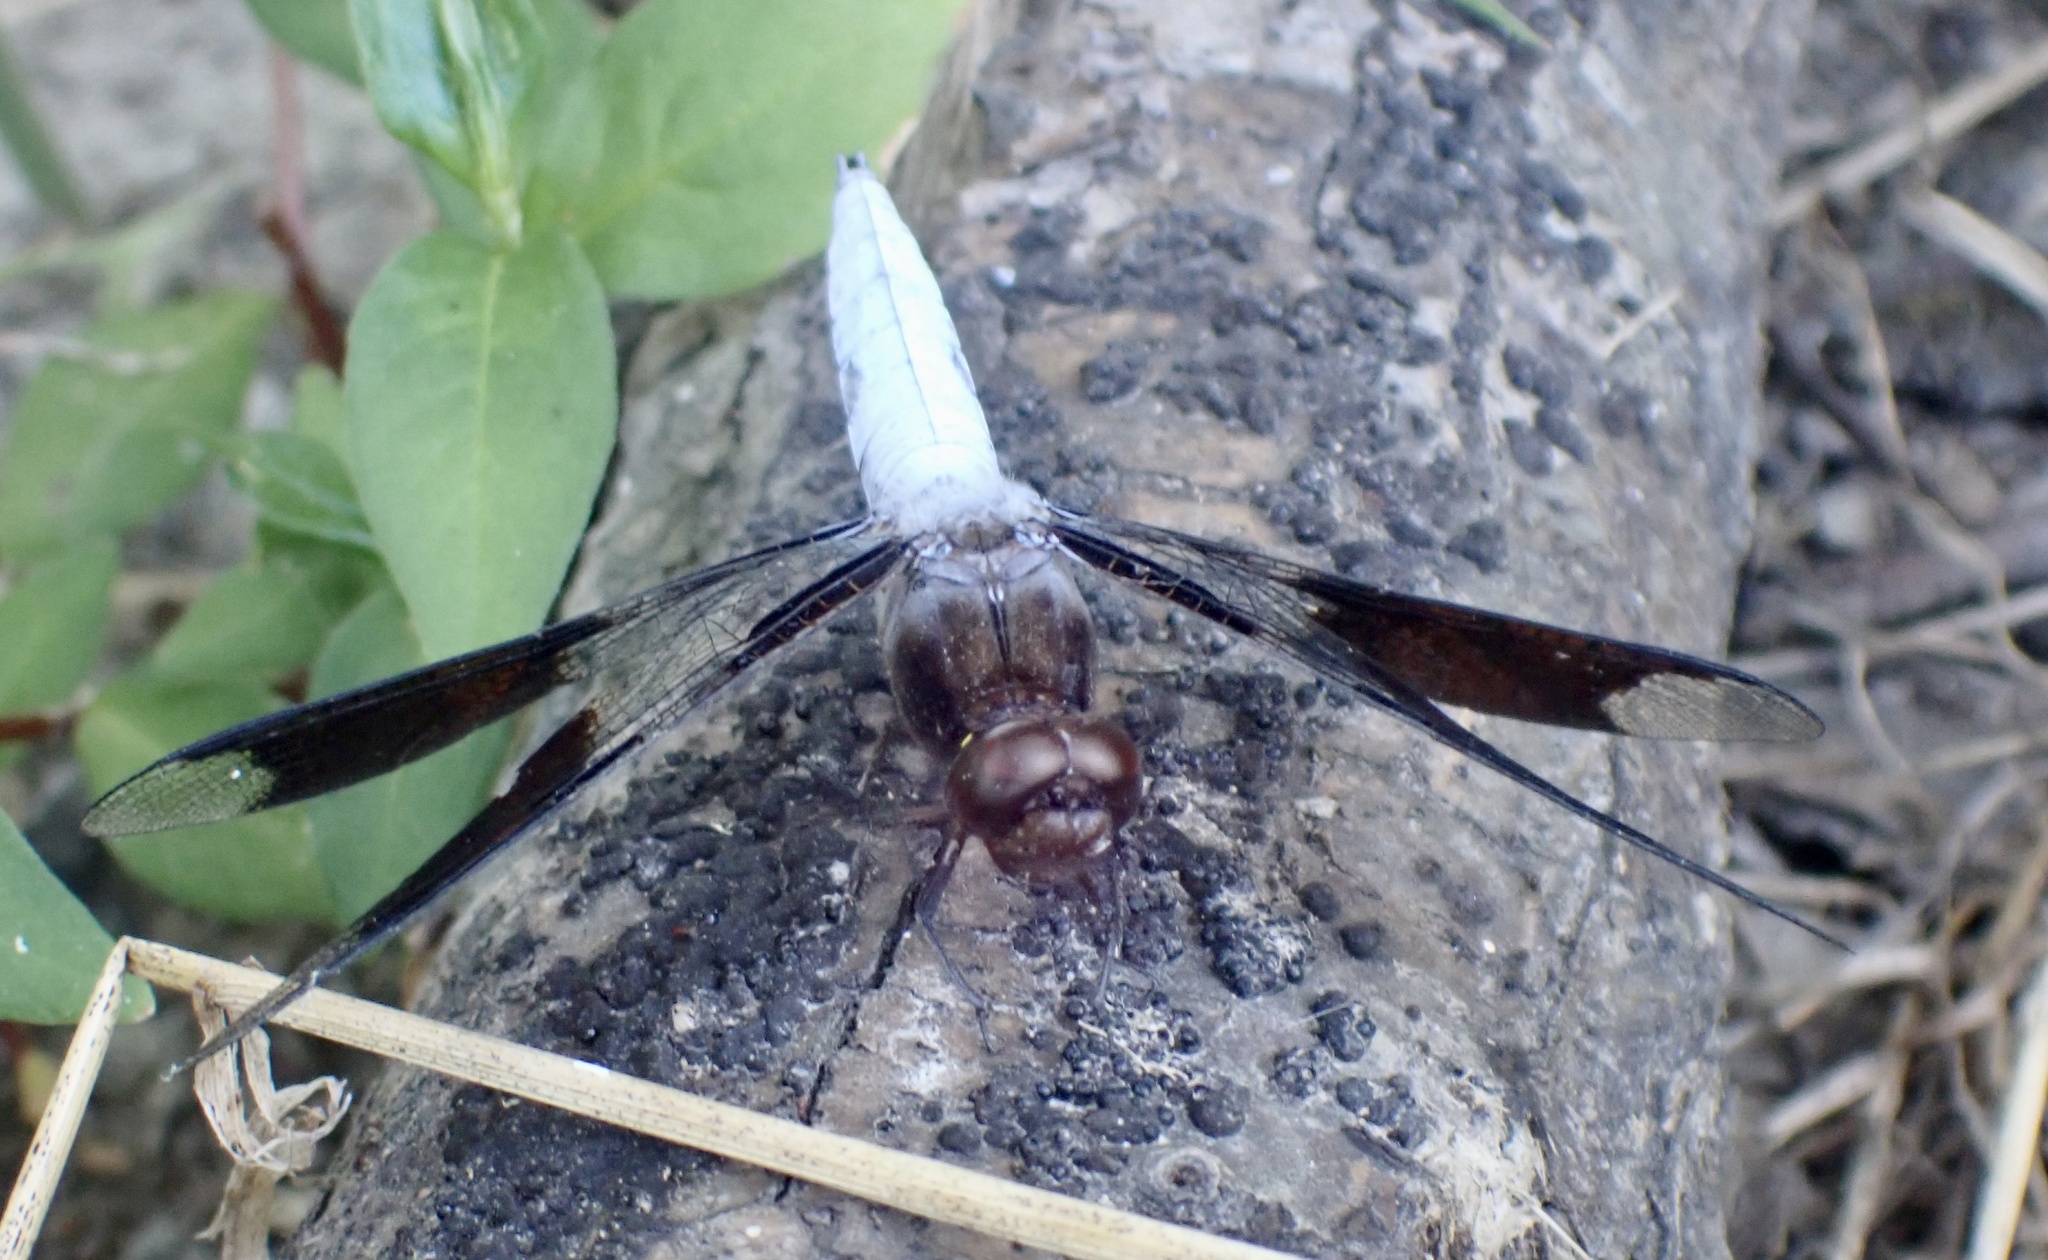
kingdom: Animalia
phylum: Arthropoda
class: Insecta
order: Odonata
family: Libellulidae
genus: Plathemis
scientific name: Plathemis lydia
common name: Common whitetail
